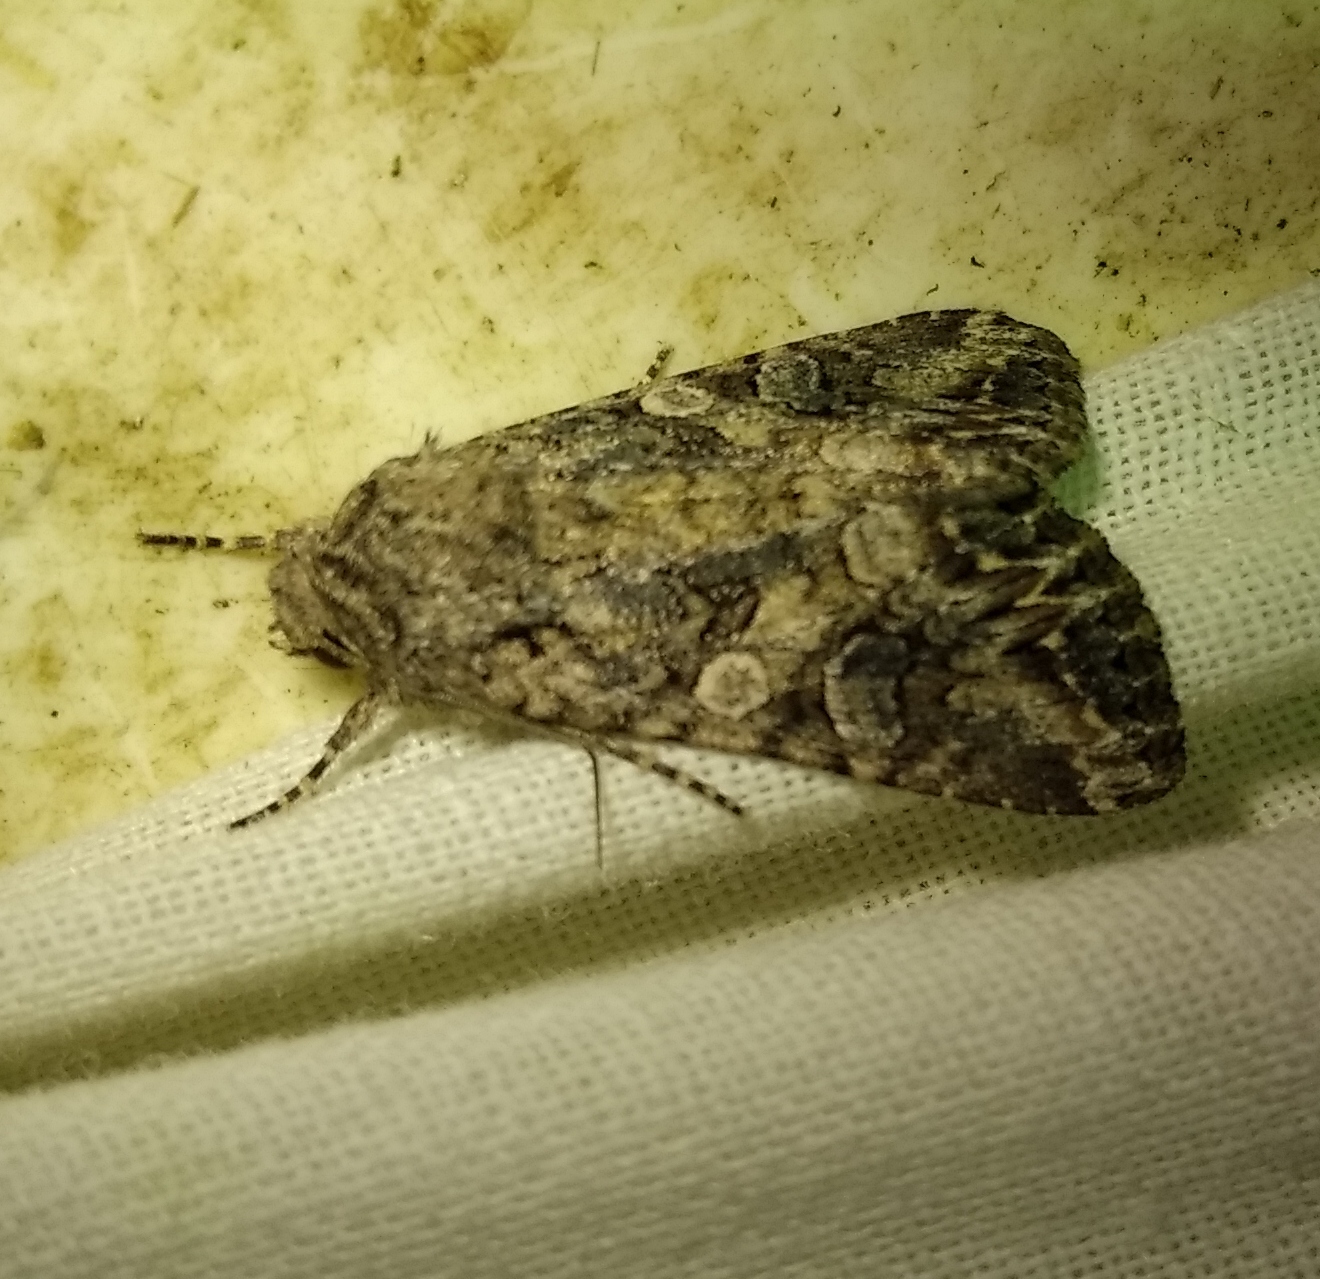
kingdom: Animalia
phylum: Arthropoda
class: Insecta
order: Lepidoptera
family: Noctuidae
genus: Anarta
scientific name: Anarta trifolii
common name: Clover cutworm moth
